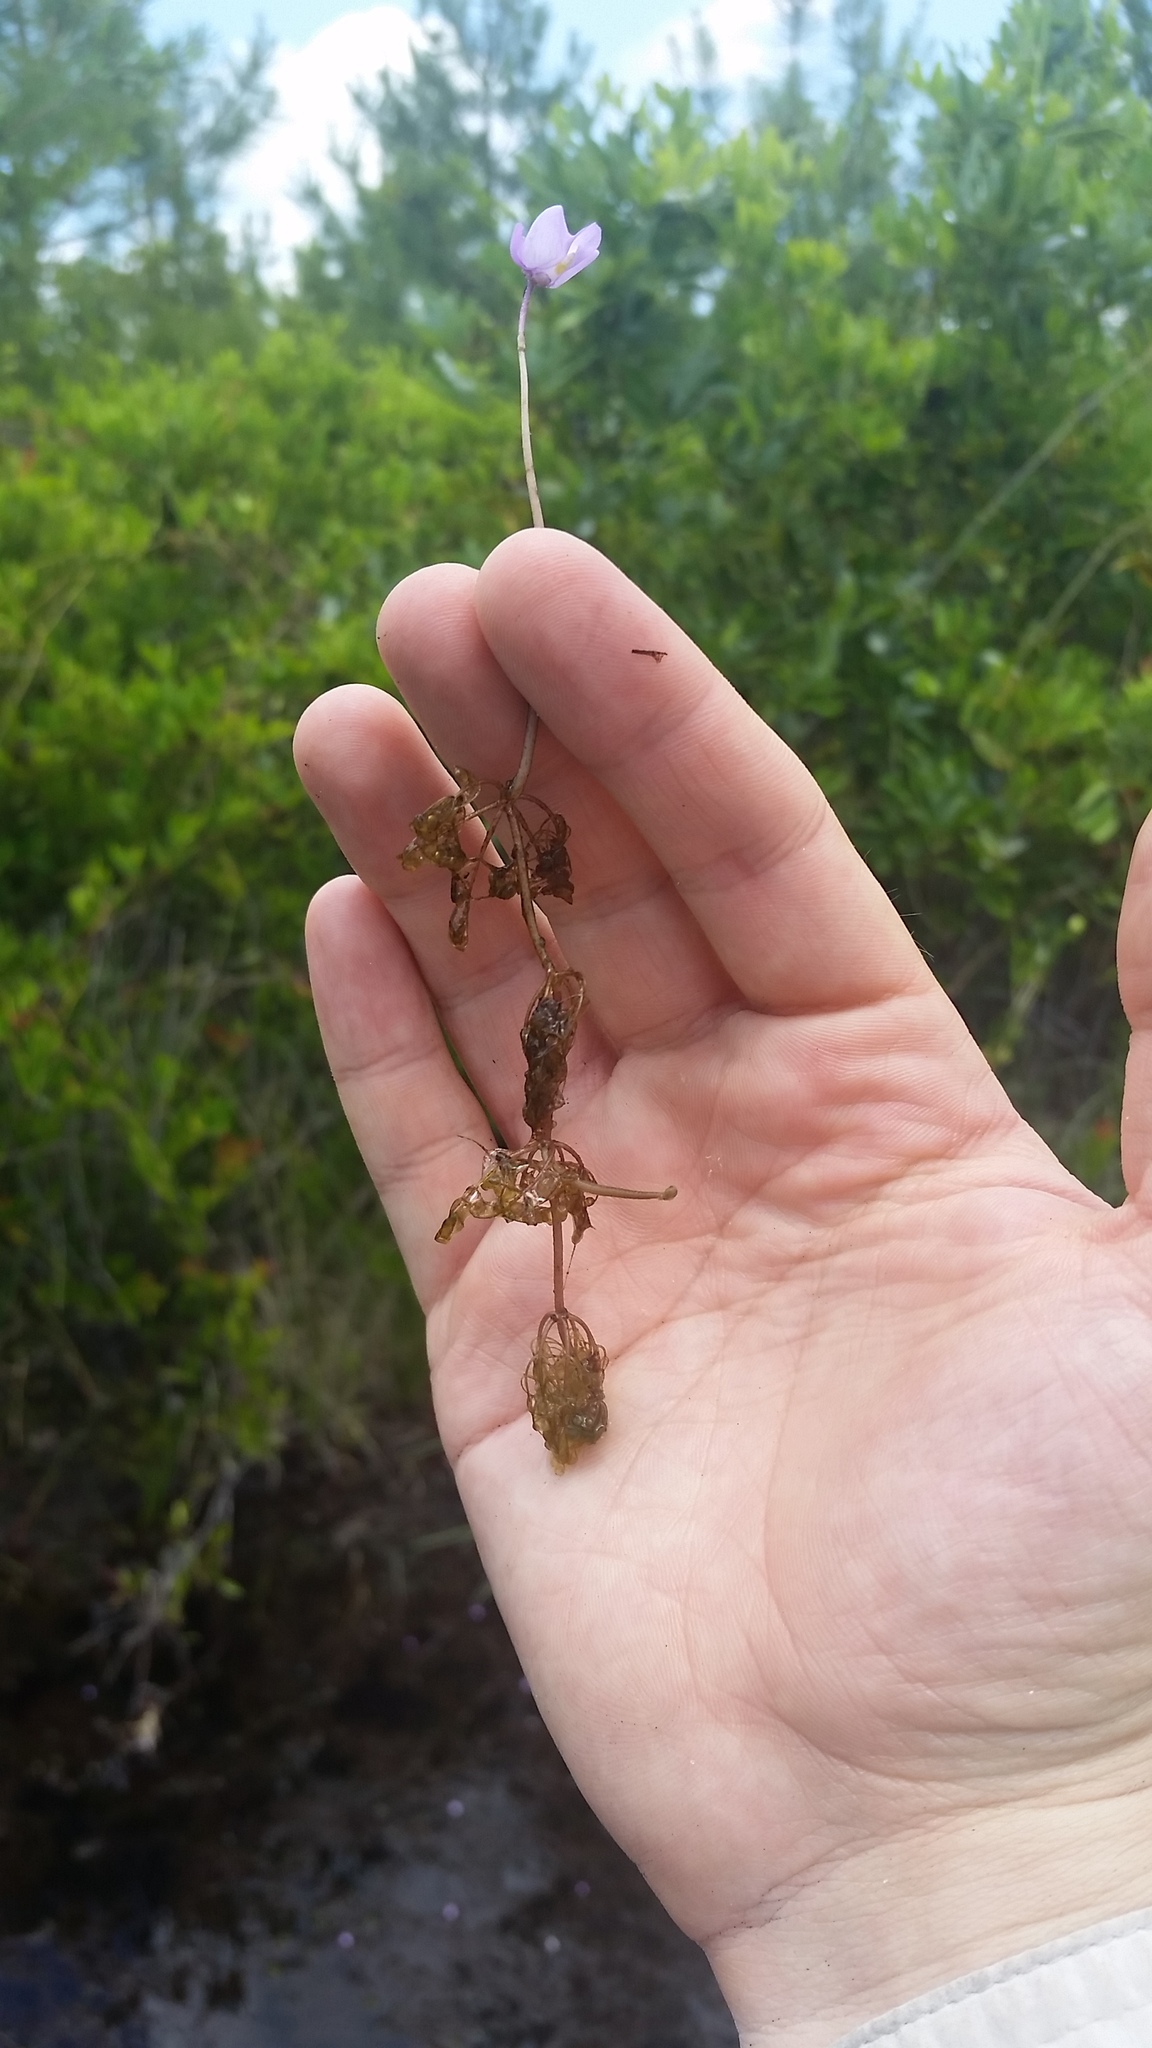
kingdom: Plantae
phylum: Tracheophyta
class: Magnoliopsida
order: Lamiales
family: Lentibulariaceae
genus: Utricularia
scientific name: Utricularia purpurea
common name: Eastern purple bladderwort
